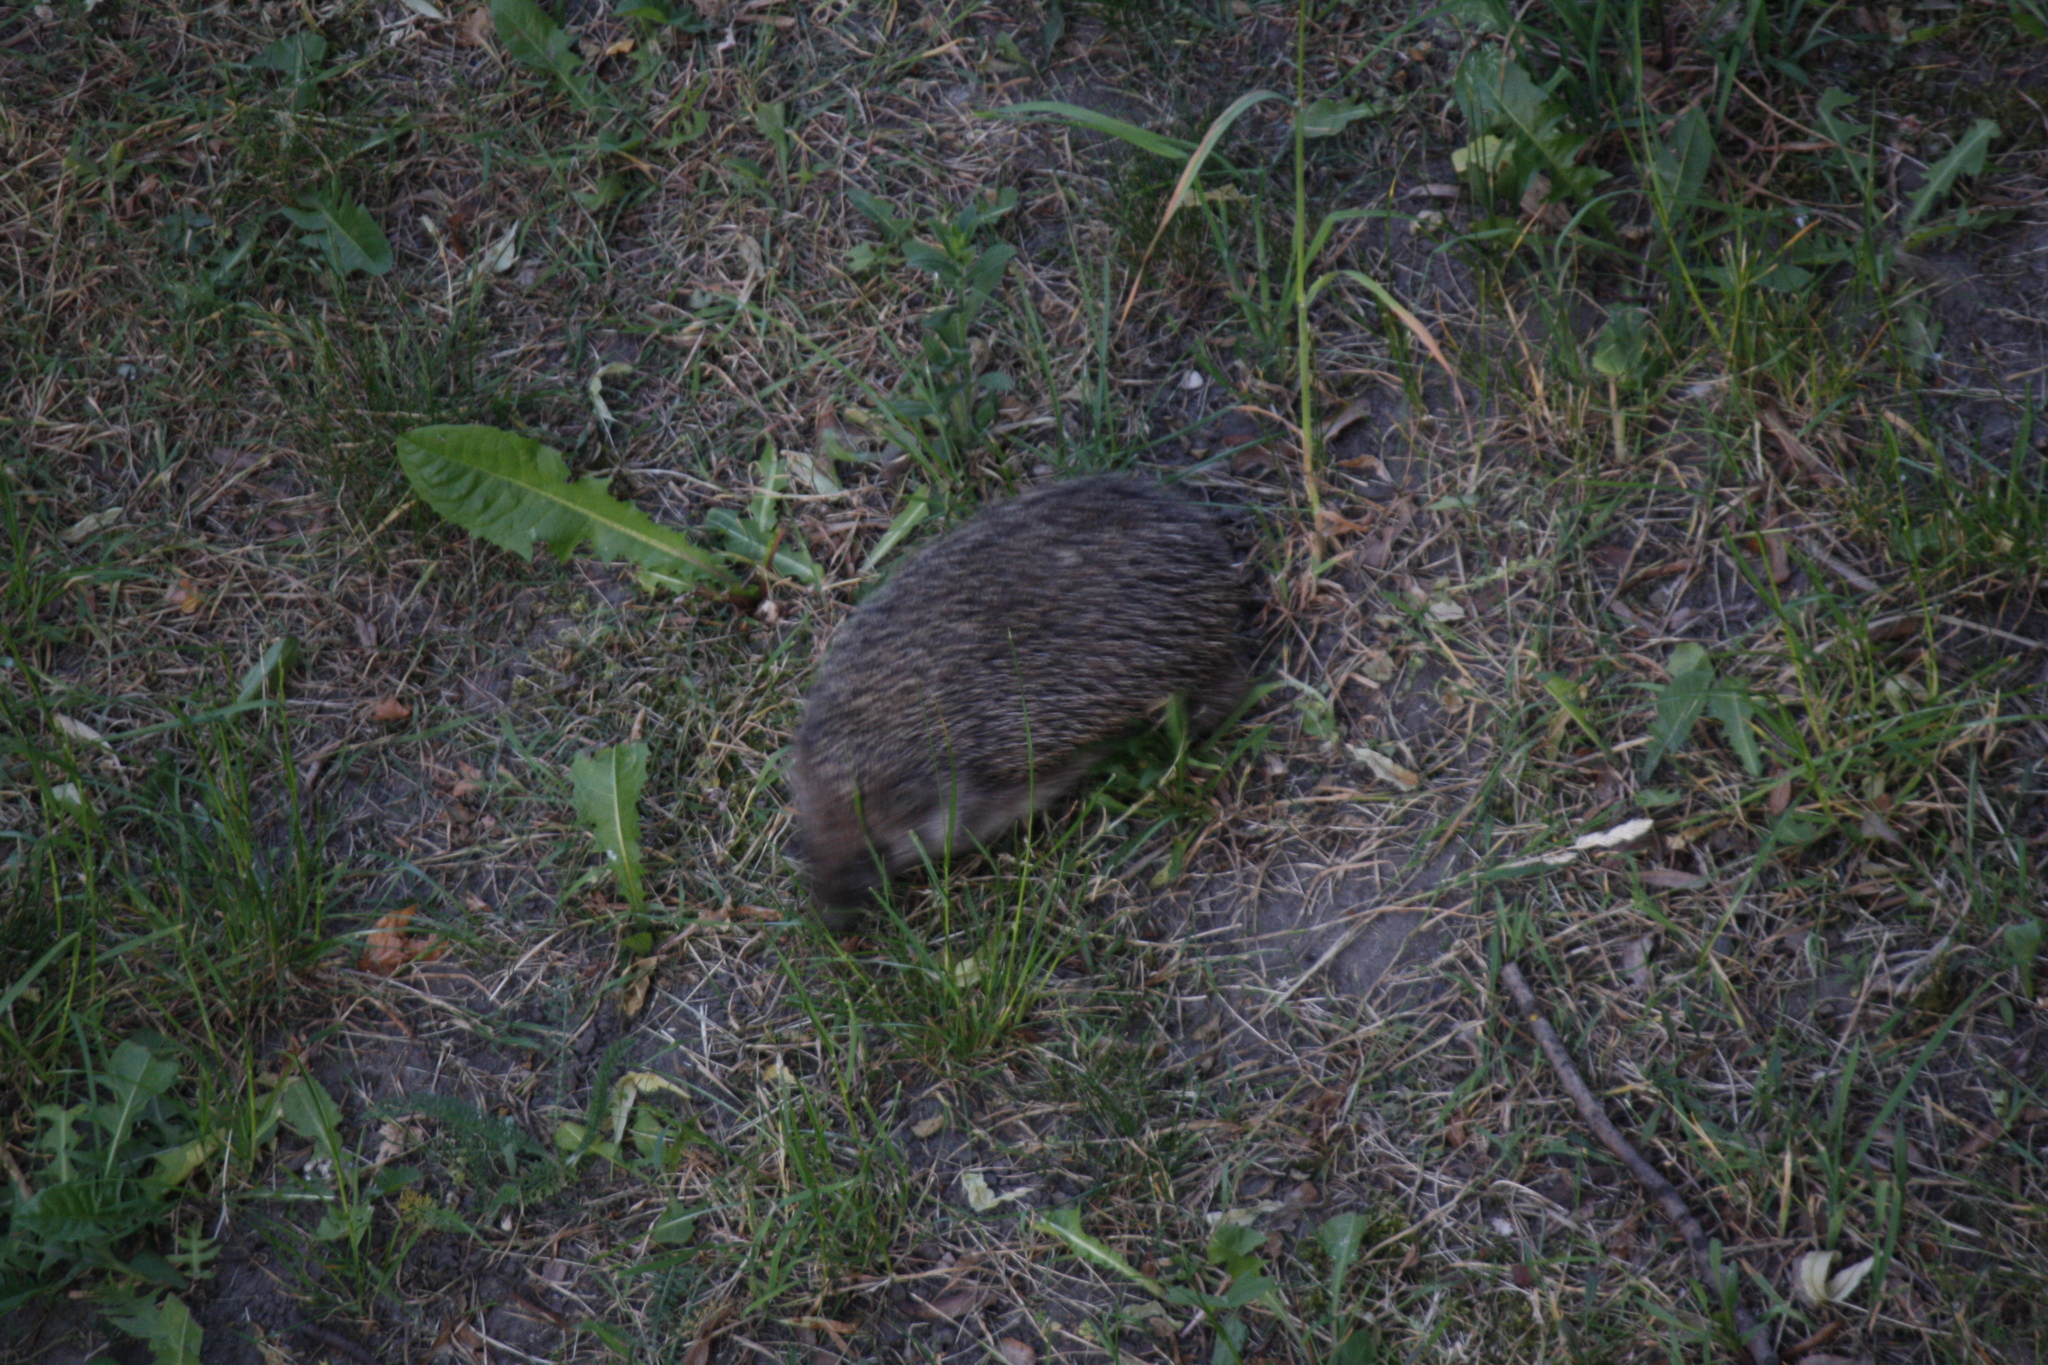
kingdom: Animalia
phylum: Chordata
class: Mammalia
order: Erinaceomorpha
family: Erinaceidae
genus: Erinaceus
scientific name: Erinaceus roumanicus
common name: Northern white-breasted hedgehog
